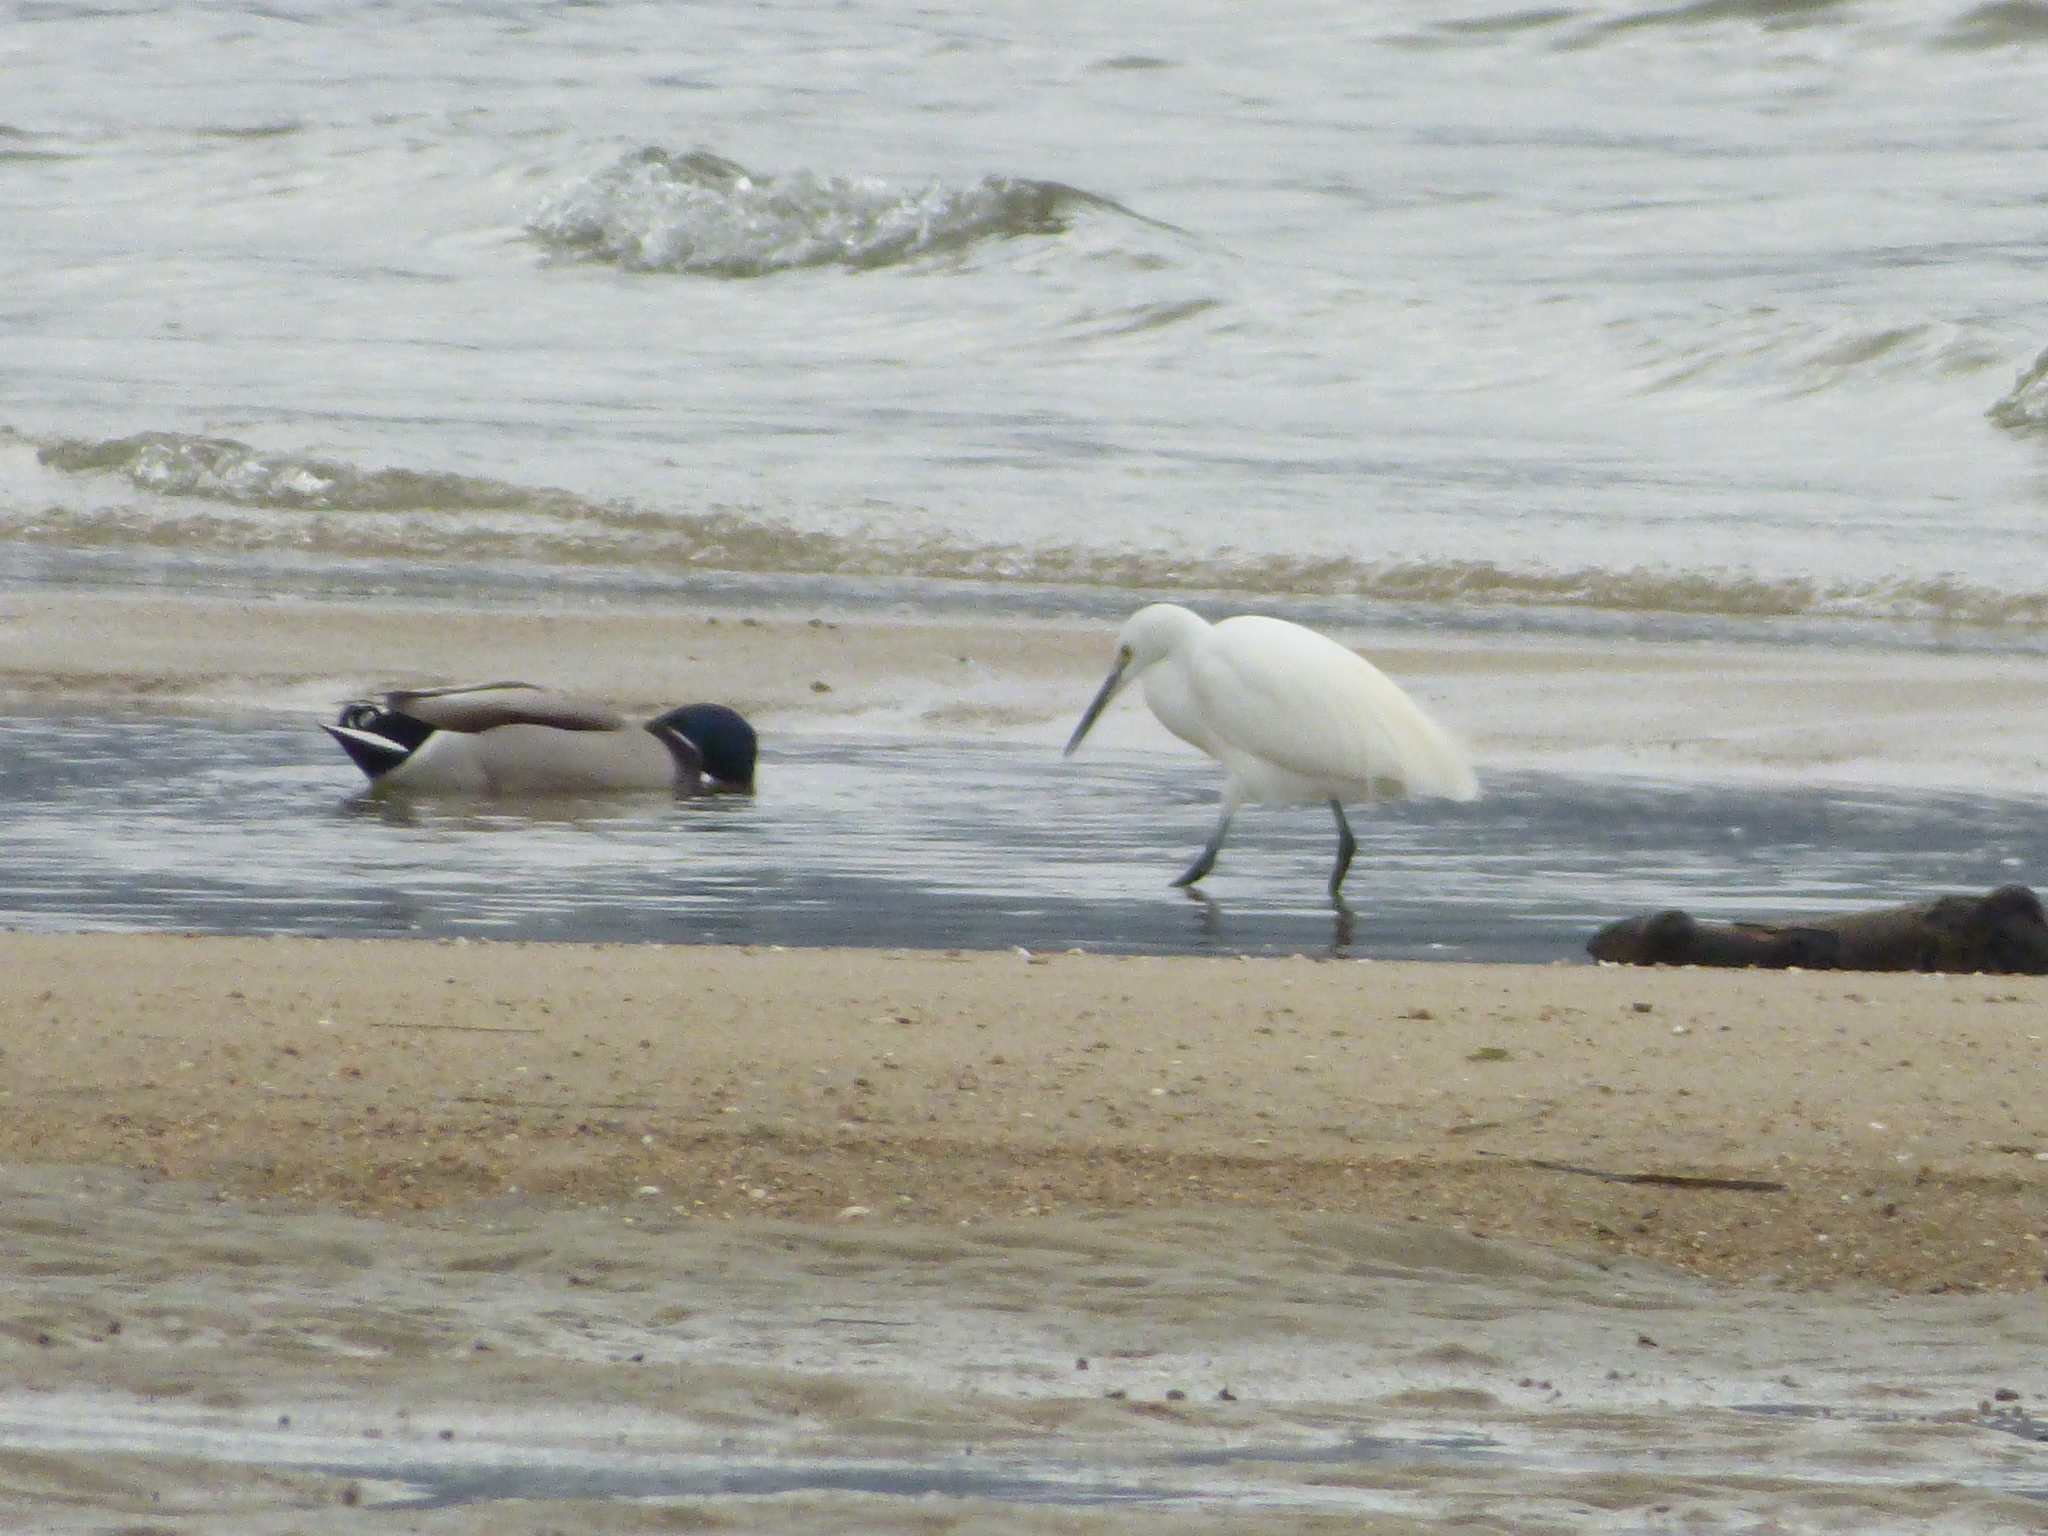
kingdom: Animalia
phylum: Chordata
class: Aves
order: Pelecaniformes
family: Ardeidae
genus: Egretta
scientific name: Egretta garzetta
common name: Little egret
